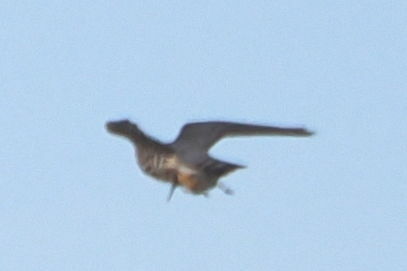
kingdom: Animalia
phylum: Chordata
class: Aves
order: Falconiformes
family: Falconidae
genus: Falco
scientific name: Falco columbarius
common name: Merlin
